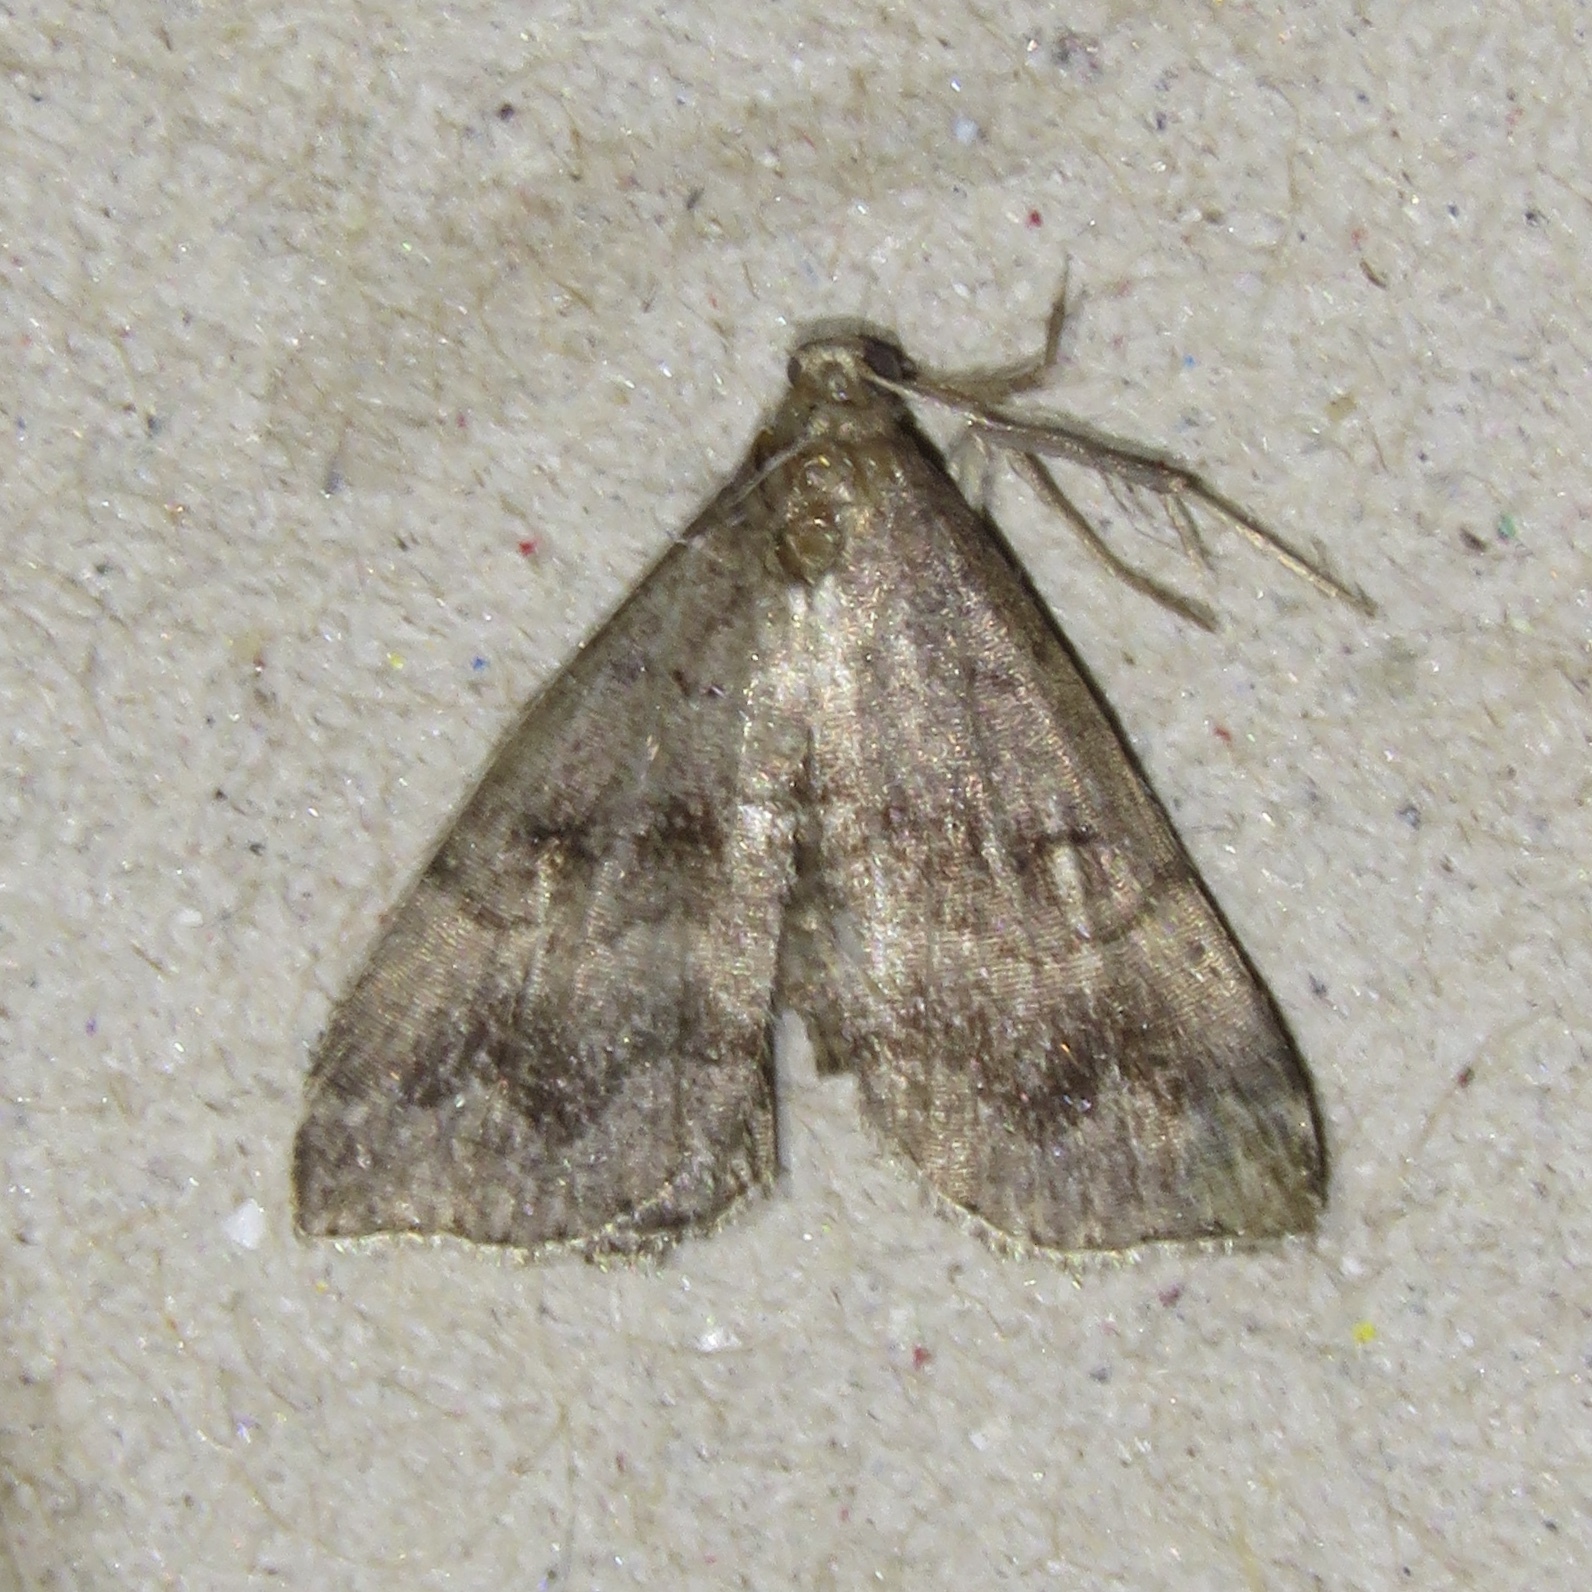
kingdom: Animalia
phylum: Arthropoda
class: Insecta
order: Lepidoptera
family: Erebidae
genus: Phalaenostola
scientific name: Phalaenostola larentioides
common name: Black-banded owlet
